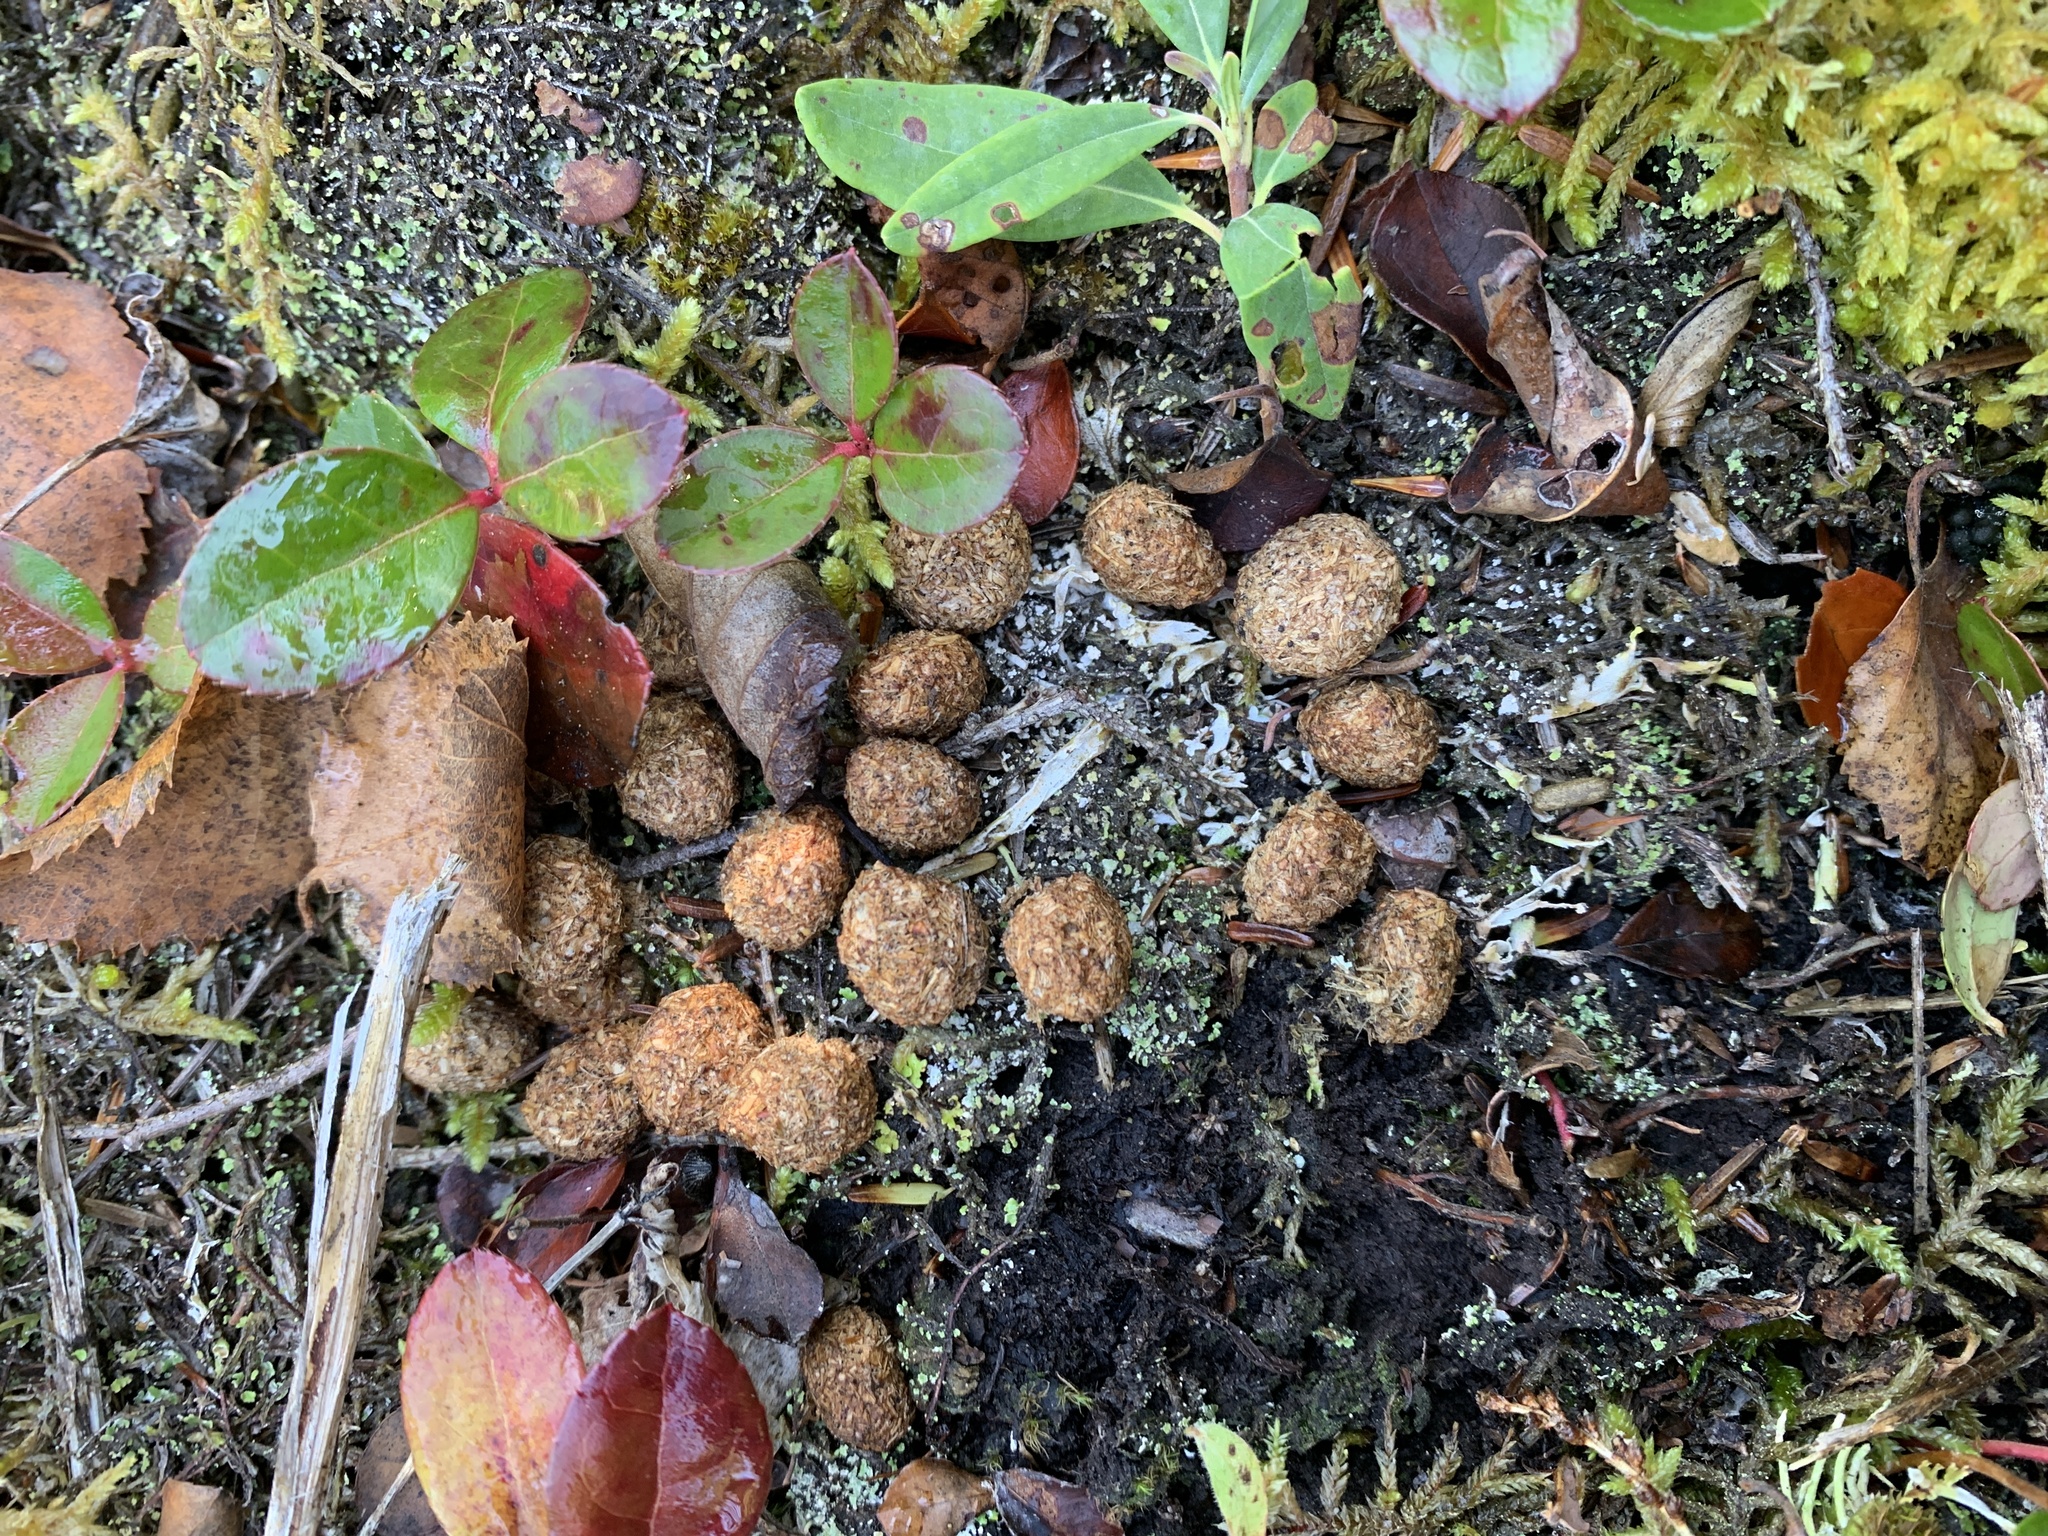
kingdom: Animalia
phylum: Chordata
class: Mammalia
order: Lagomorpha
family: Leporidae
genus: Lepus
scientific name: Lepus americanus
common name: Snowshoe hare
